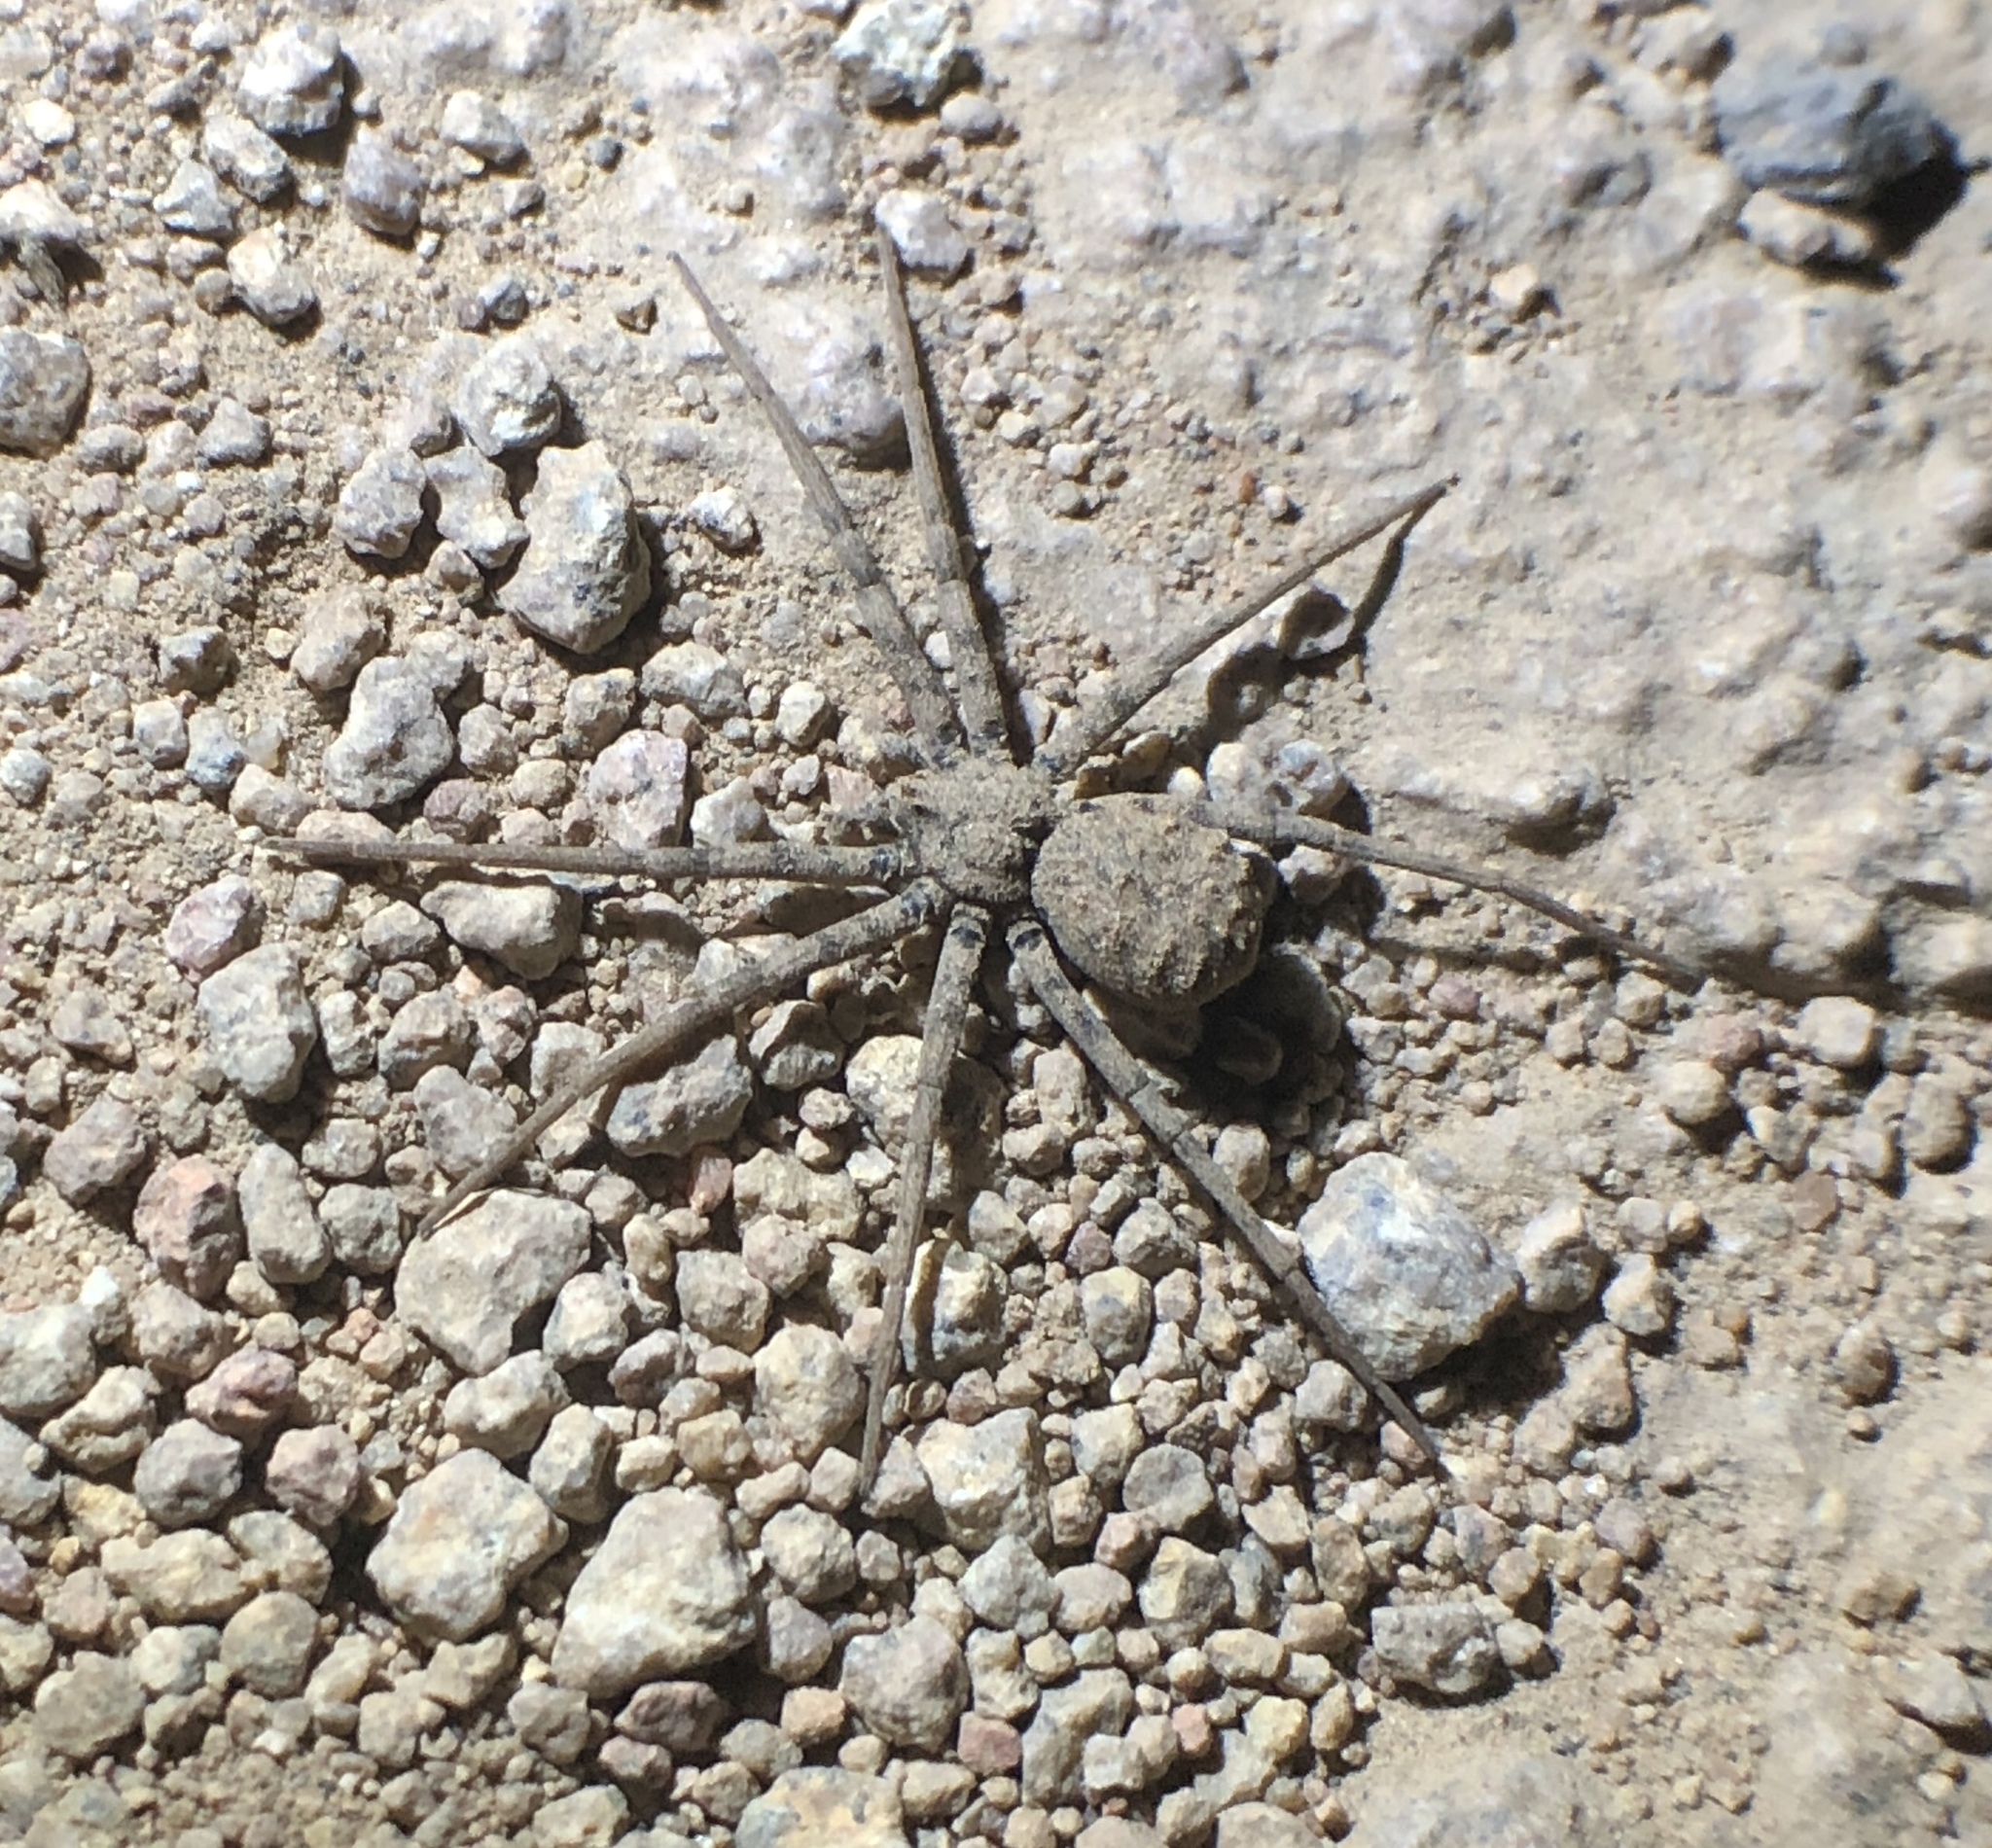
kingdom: Animalia
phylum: Arthropoda
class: Arachnida
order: Araneae
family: Homalonychidae
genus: Homalonychus
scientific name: Homalonychus theologus
